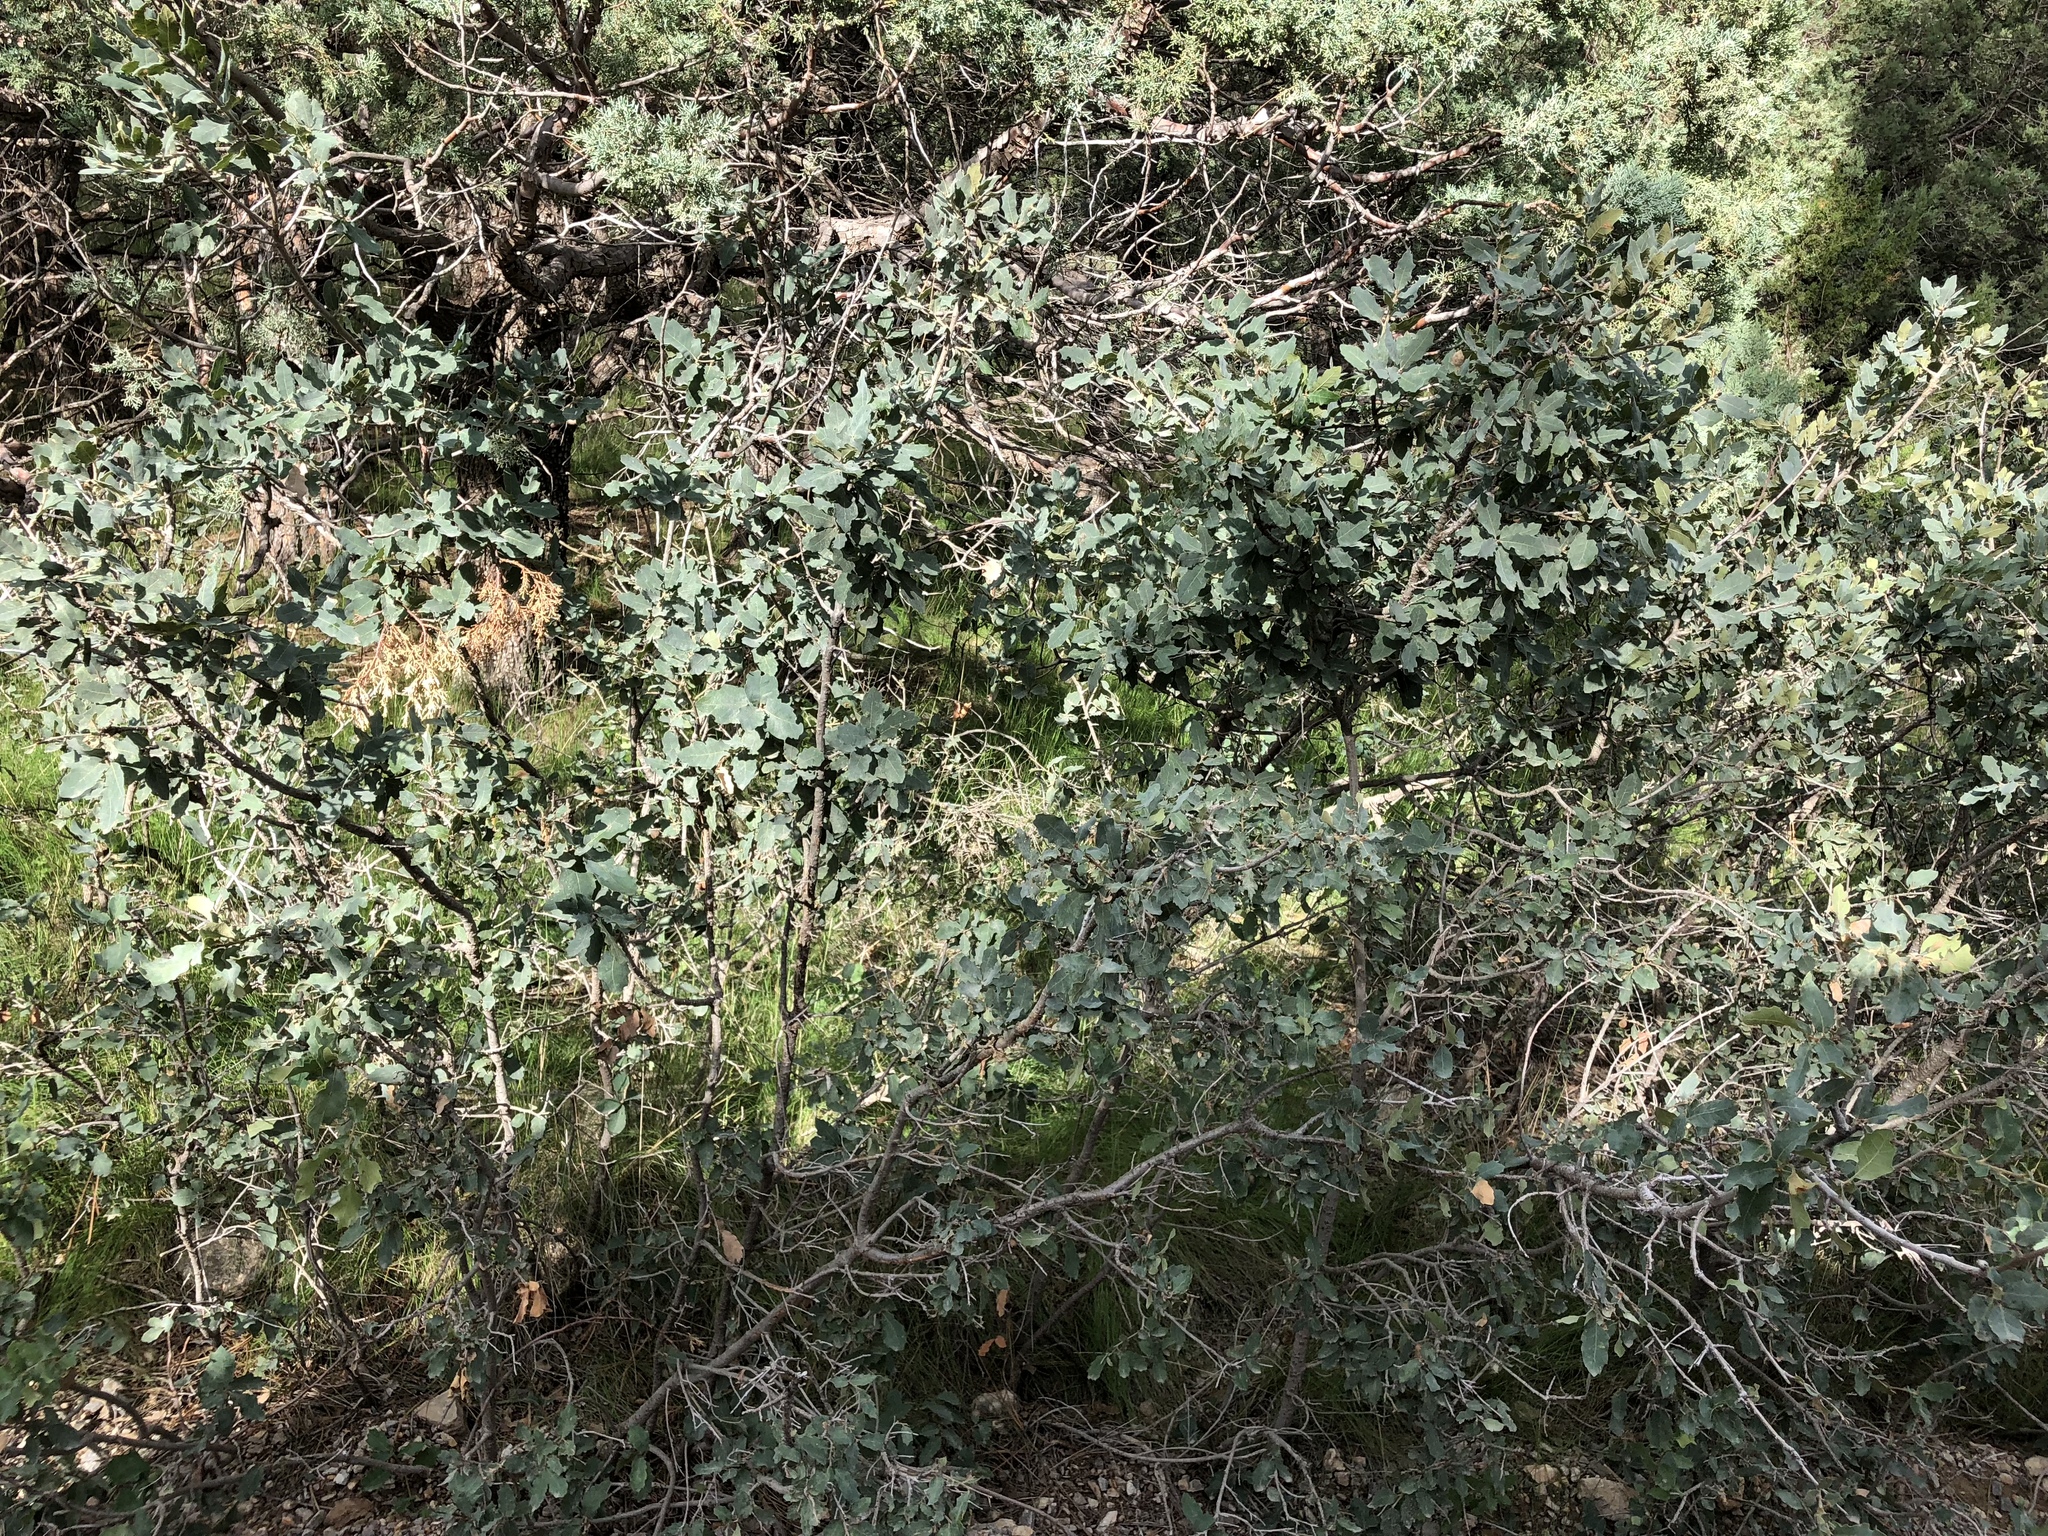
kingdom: Plantae
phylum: Tracheophyta
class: Magnoliopsida
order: Fagales
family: Fagaceae
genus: Quercus
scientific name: Quercus undulata
